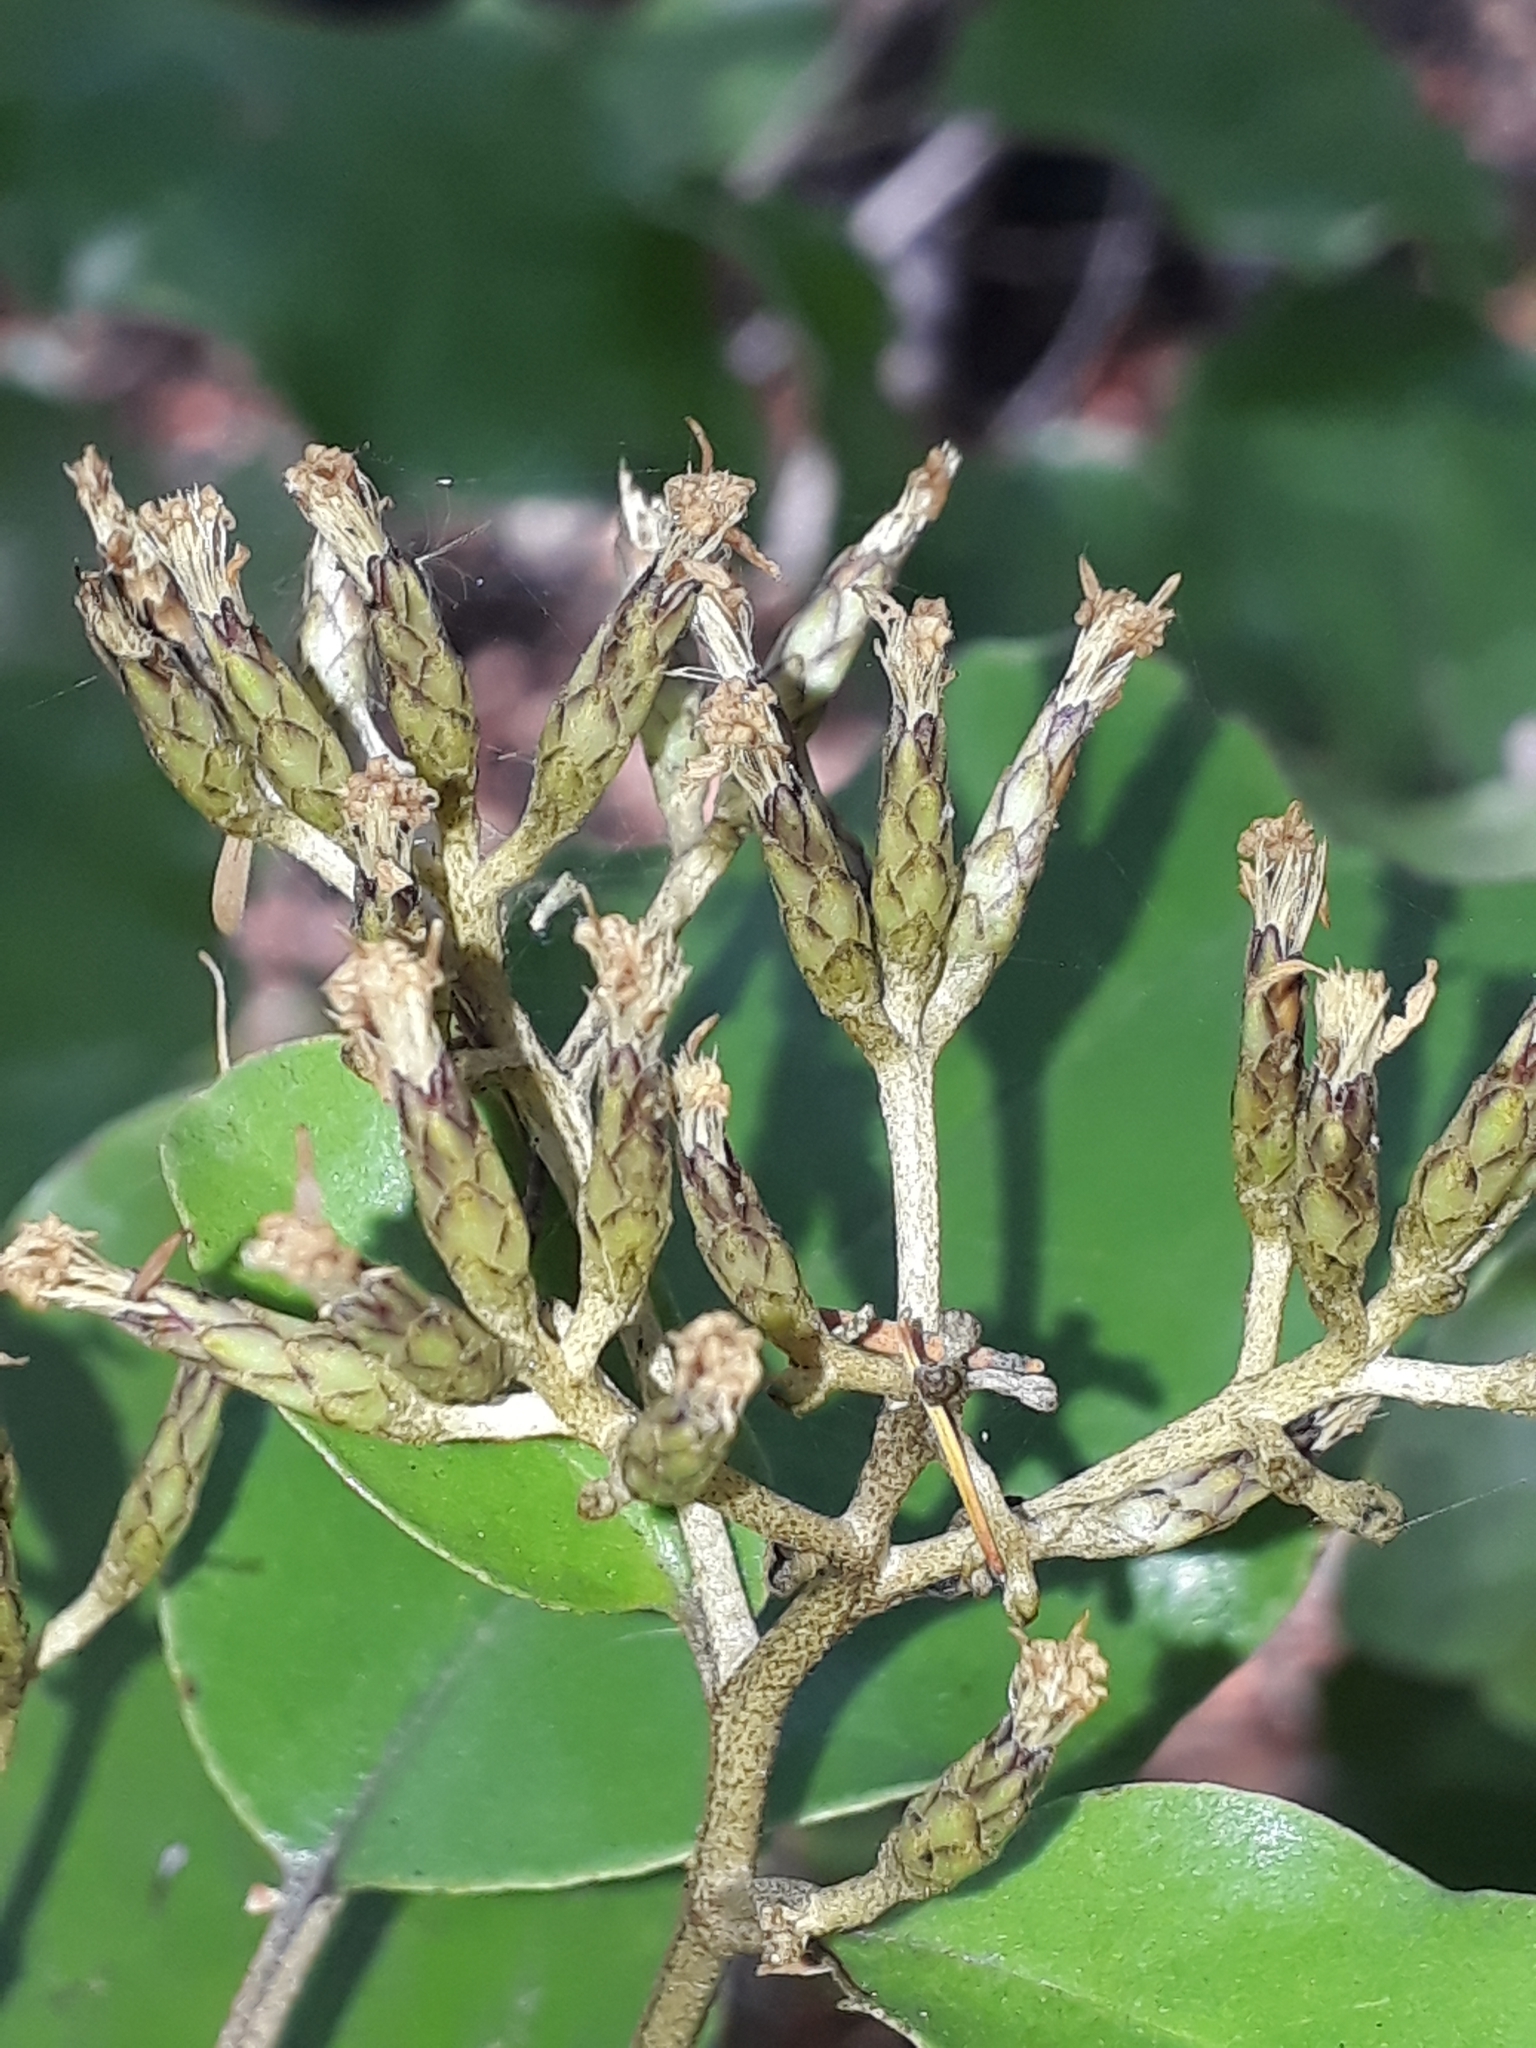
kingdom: Plantae
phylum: Tracheophyta
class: Magnoliopsida
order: Asterales
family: Asteraceae
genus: Olearia
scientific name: Olearia furfuracea
